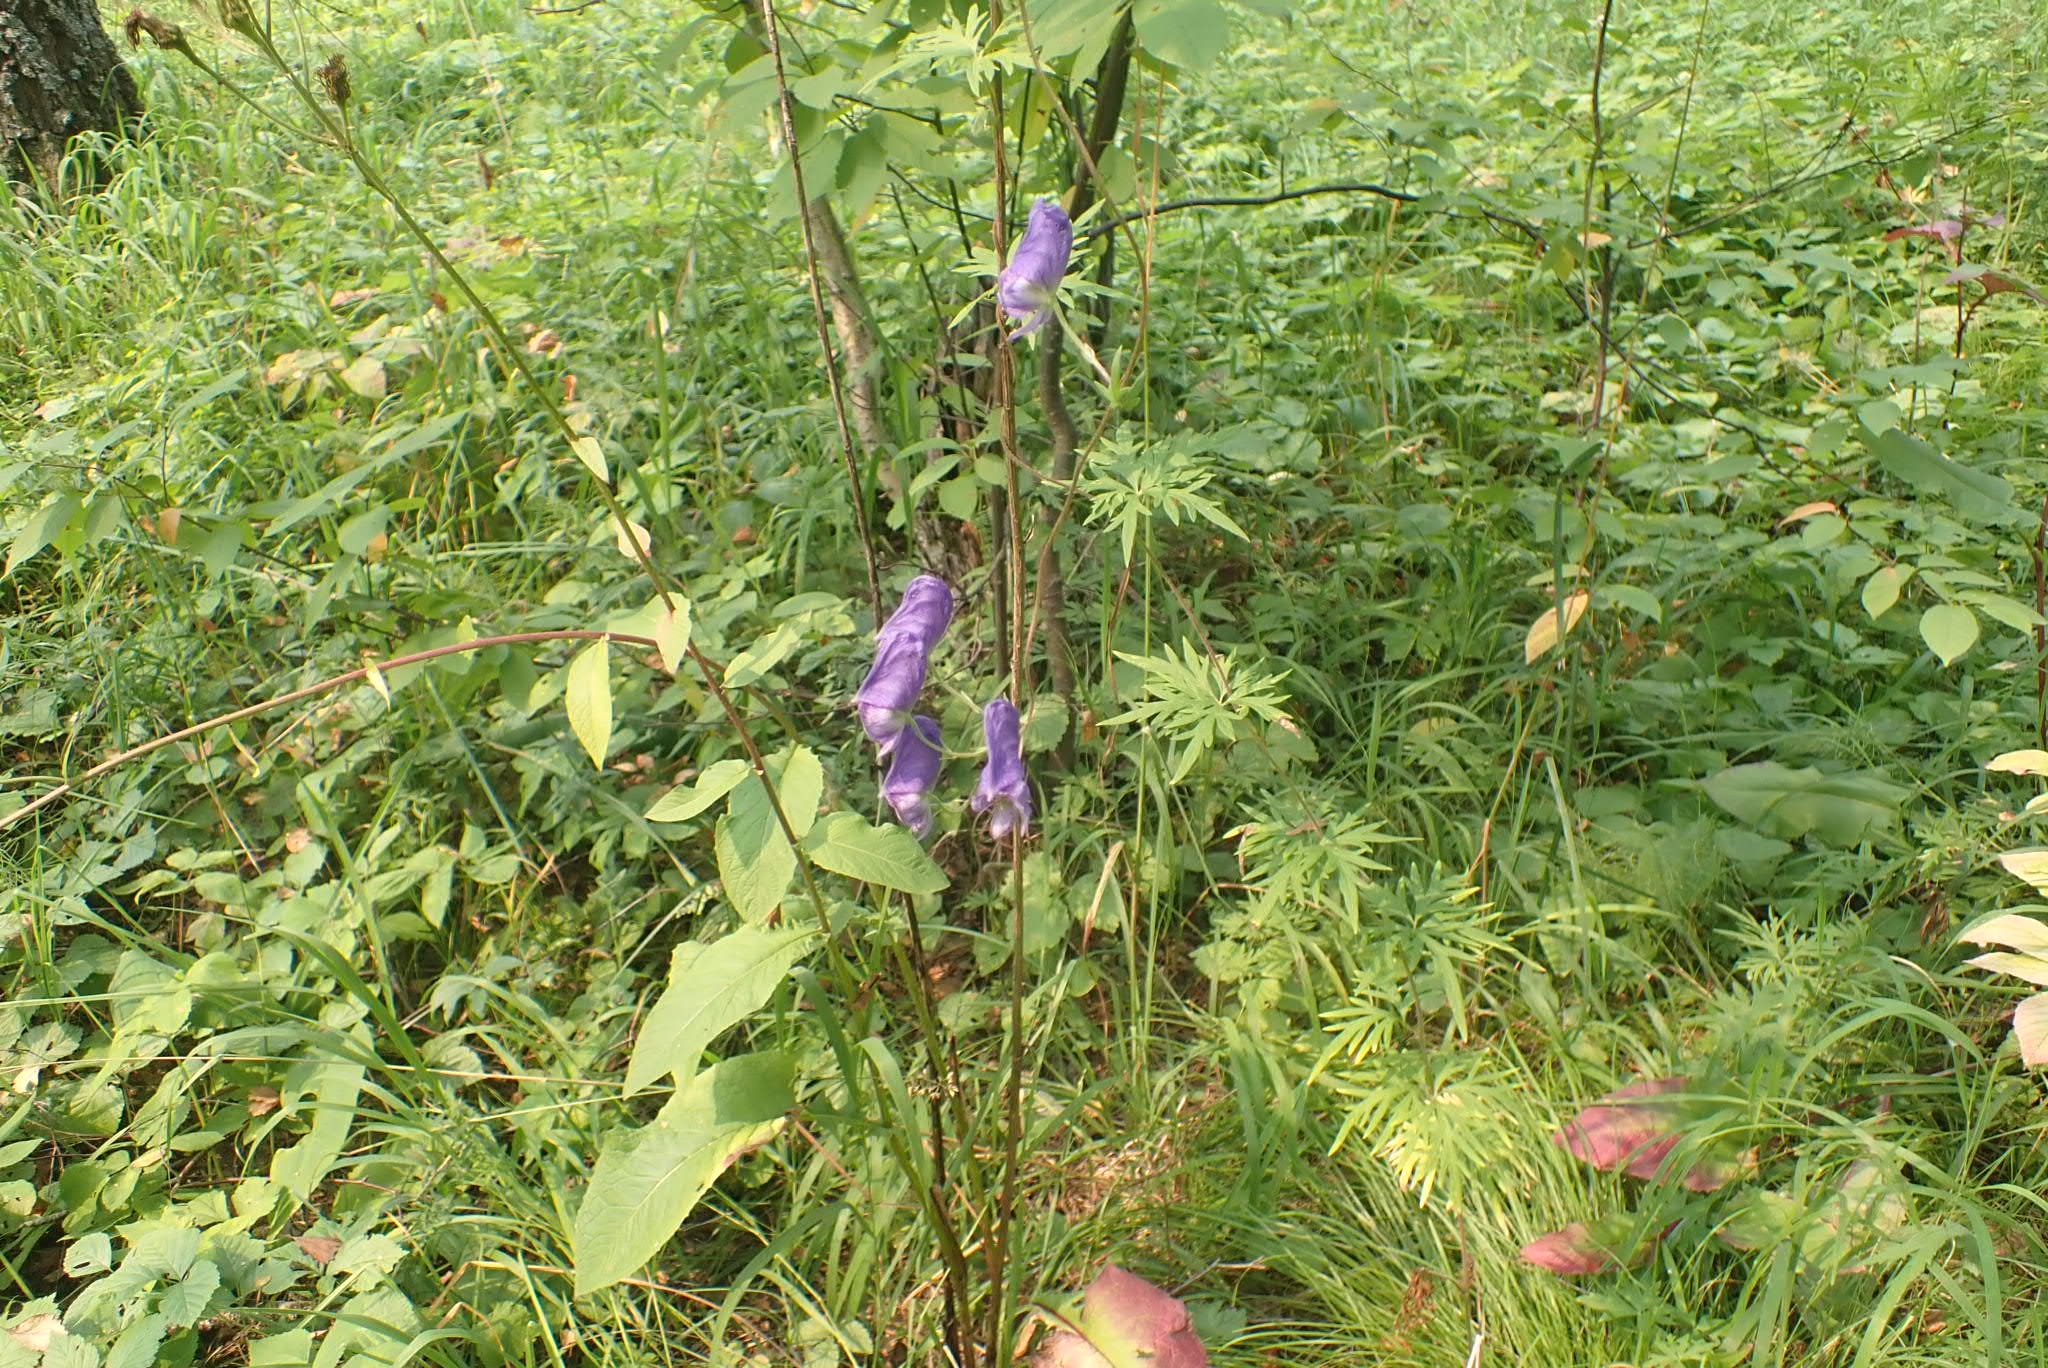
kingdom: Plantae
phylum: Tracheophyta
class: Magnoliopsida
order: Ranunculales
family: Ranunculaceae
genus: Aconitum
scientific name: Aconitum volubile
